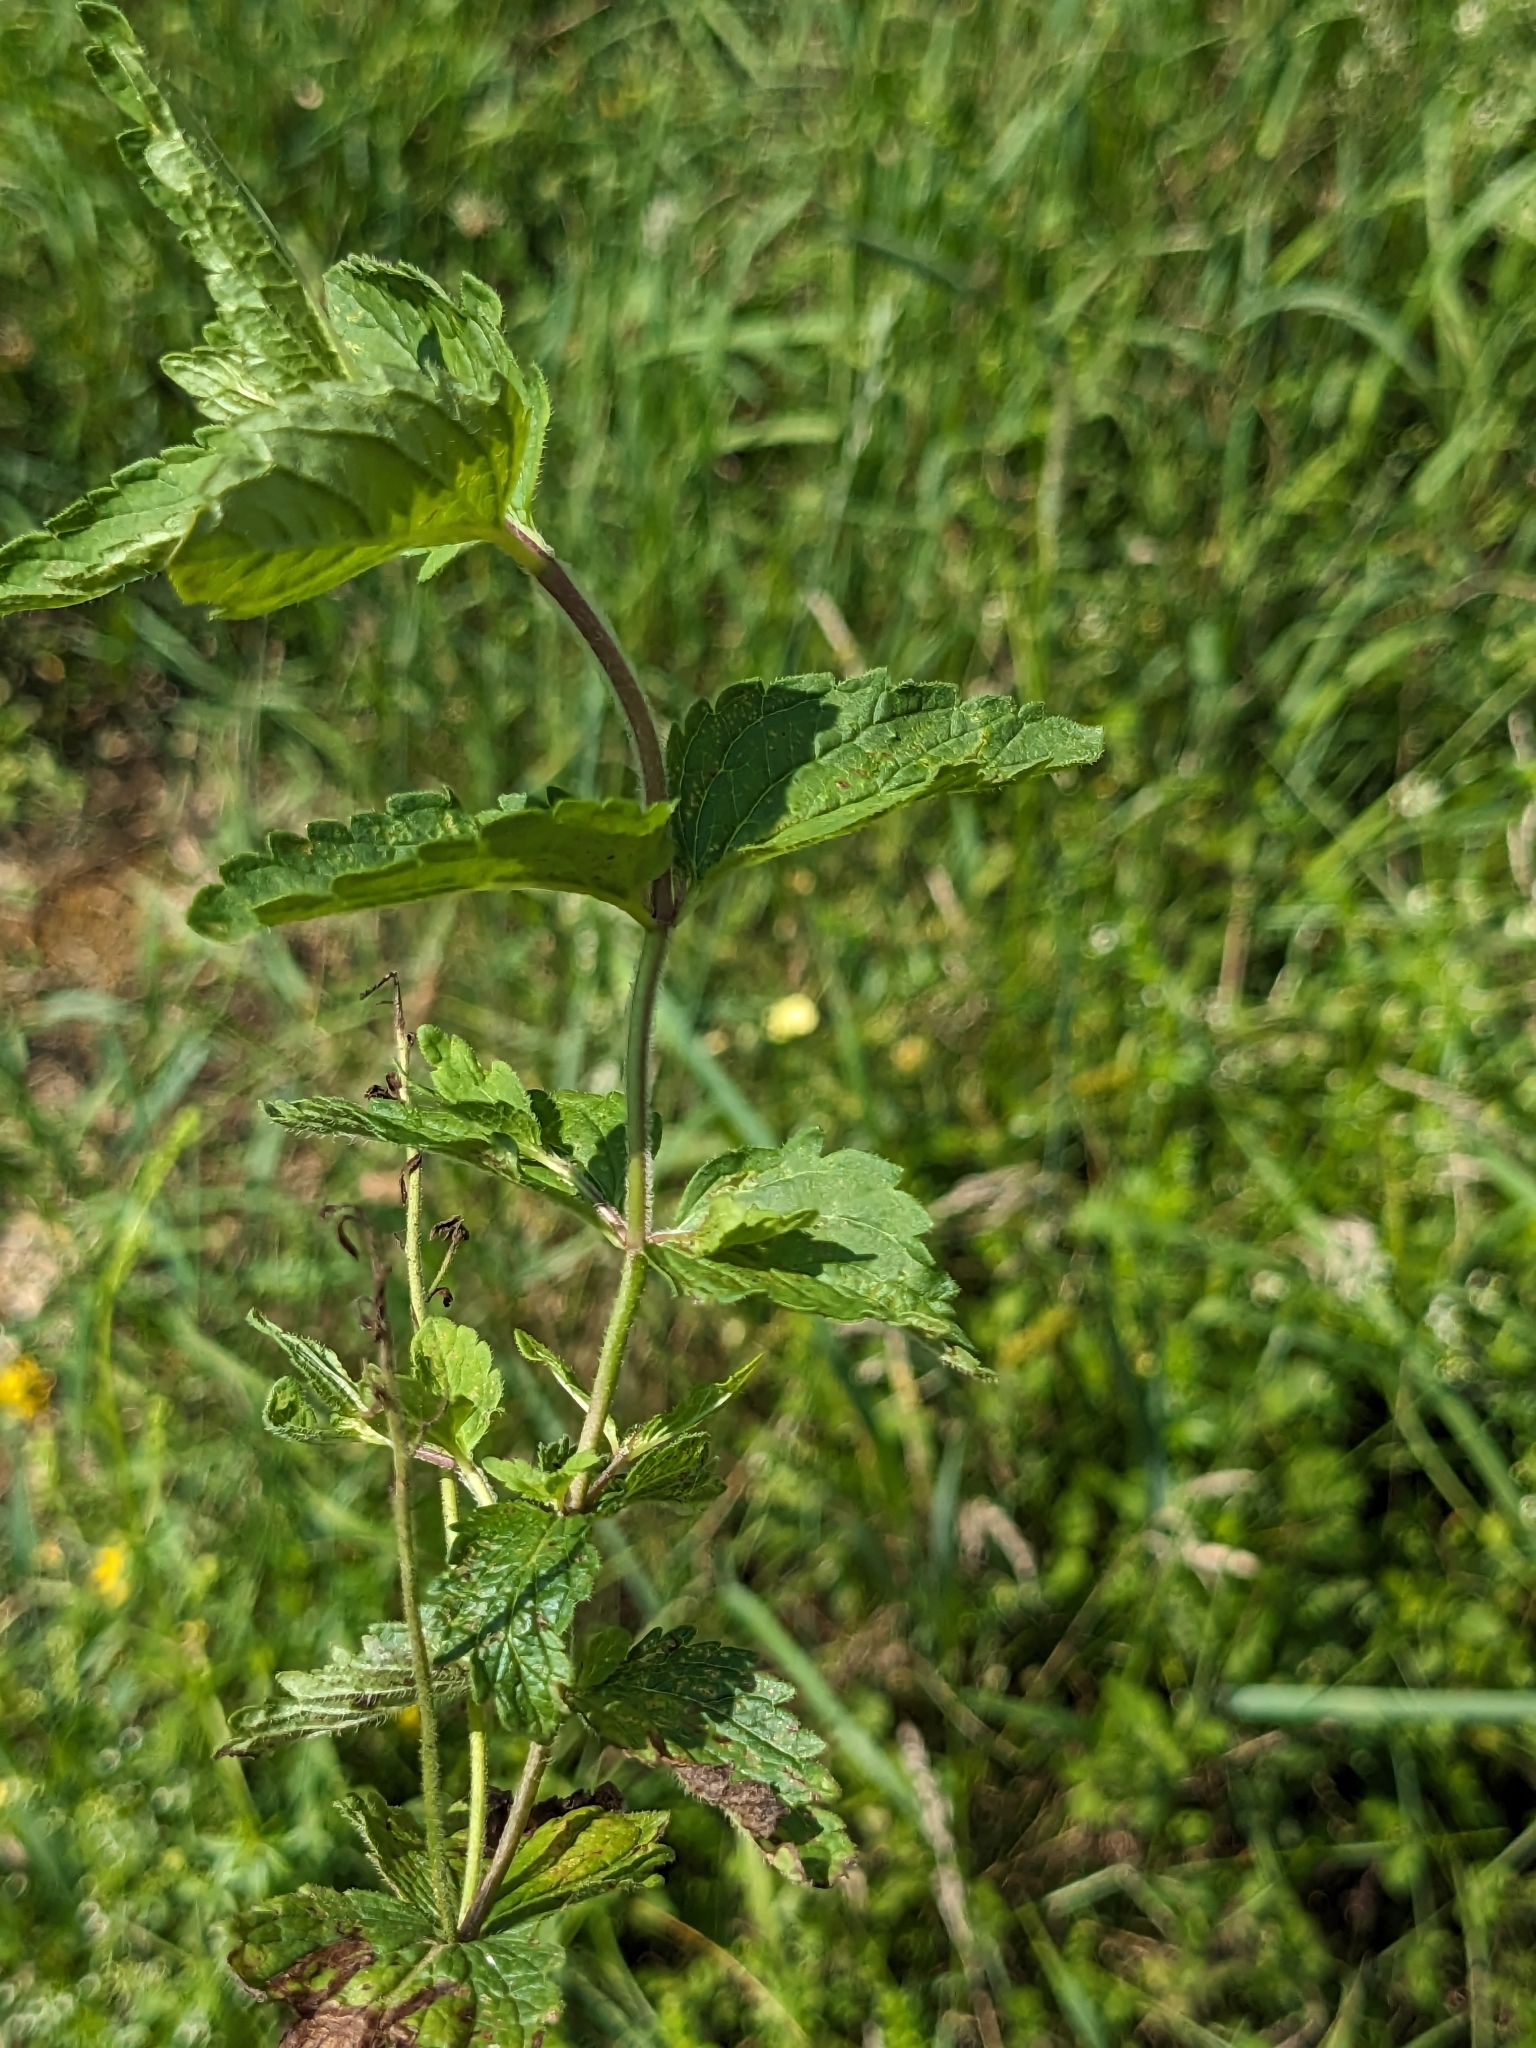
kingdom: Plantae
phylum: Tracheophyta
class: Magnoliopsida
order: Lamiales
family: Plantaginaceae
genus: Veronica
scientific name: Veronica chamaedrys
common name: Germander speedwell
